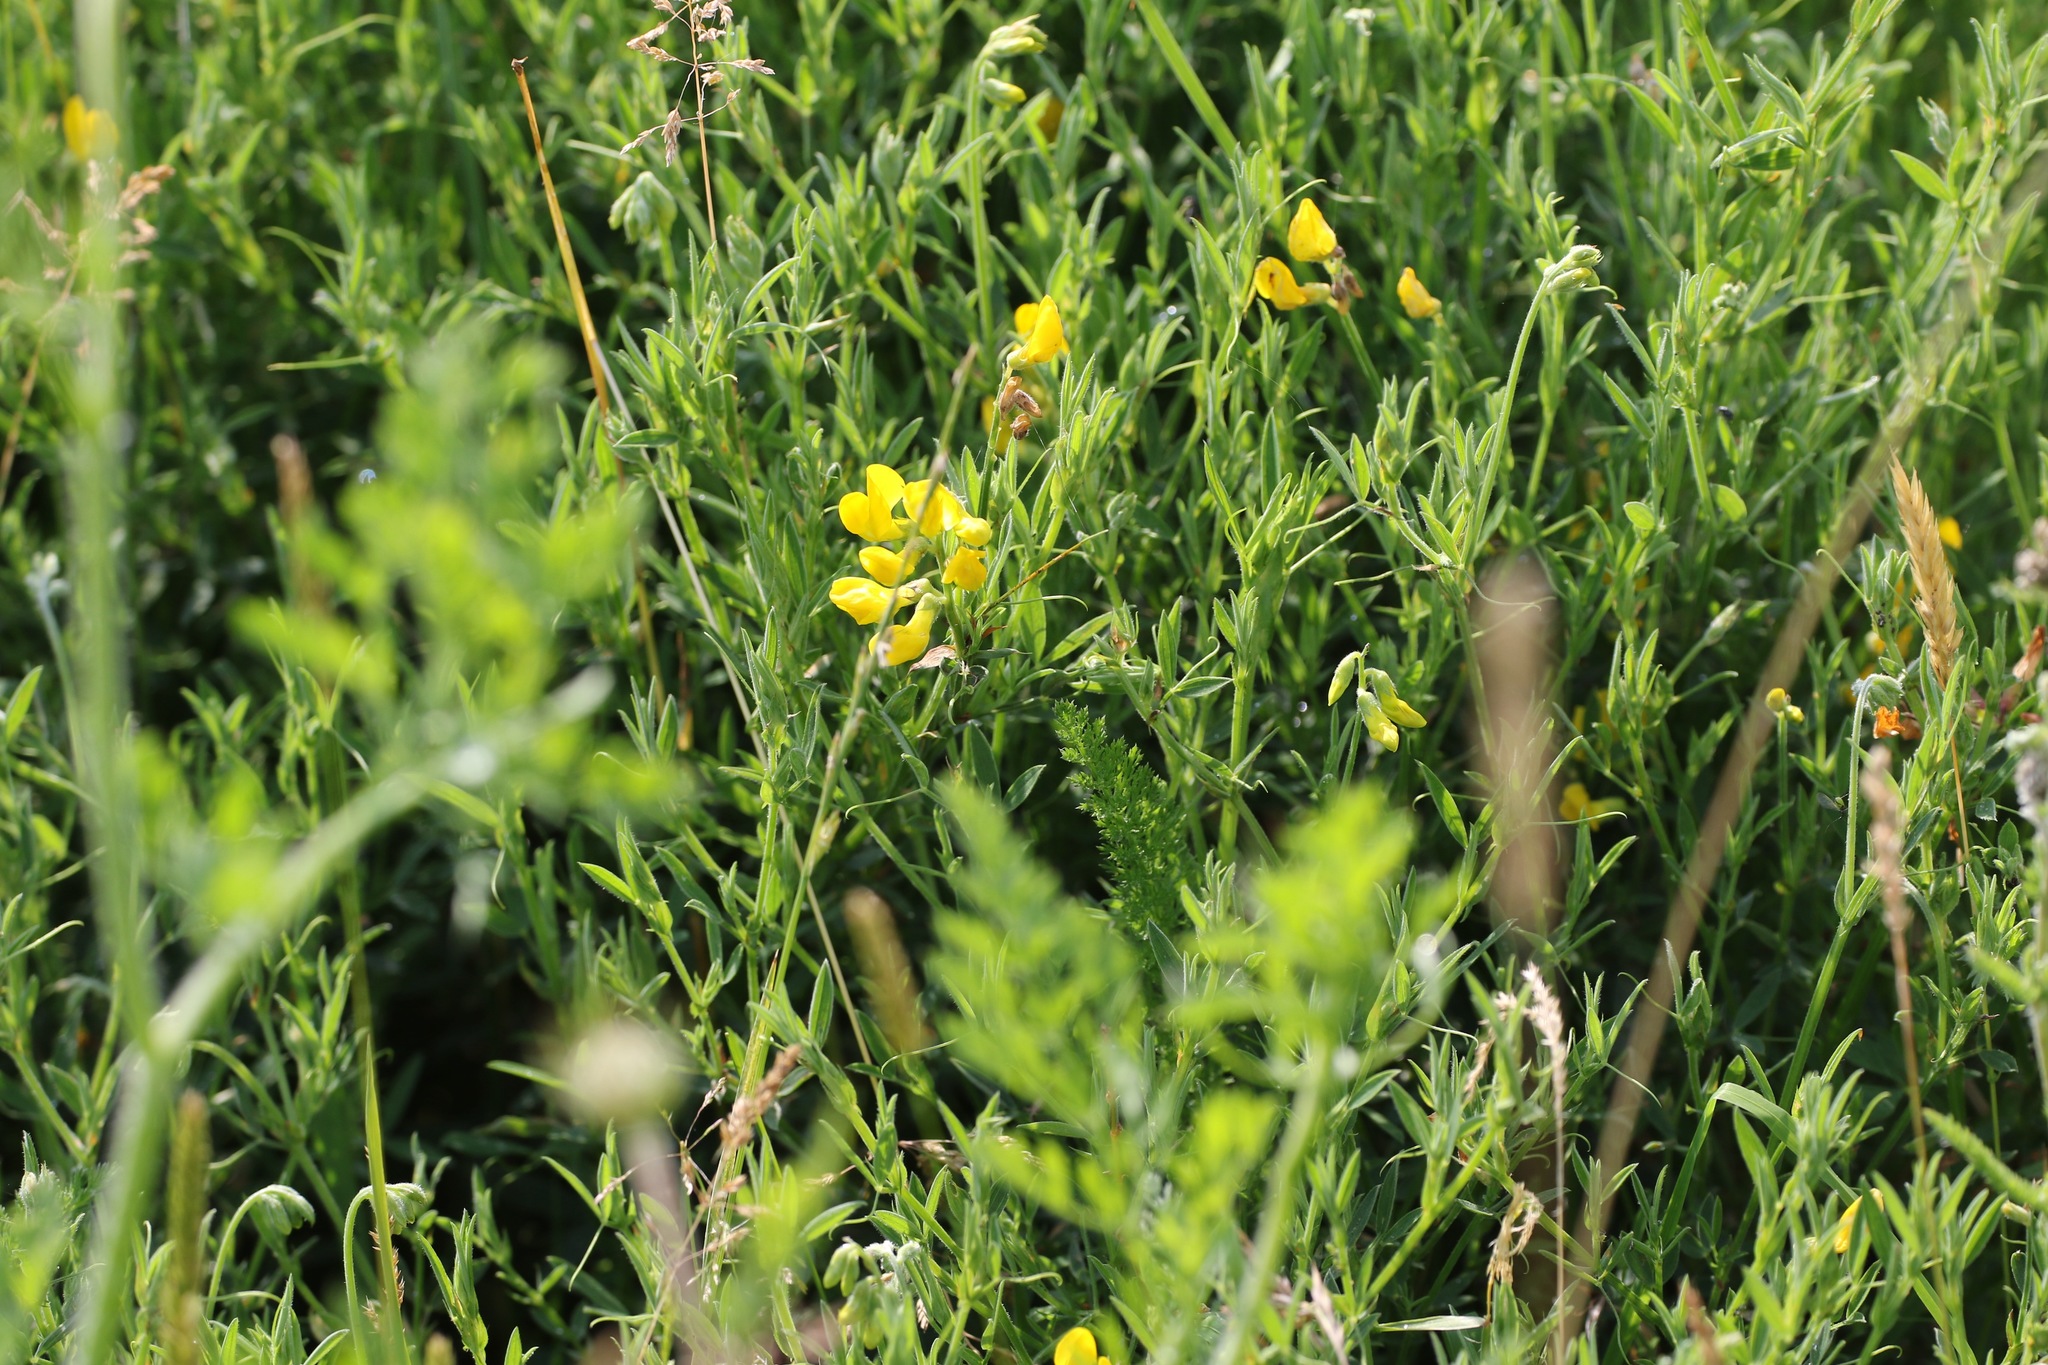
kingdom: Plantae
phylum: Tracheophyta
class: Magnoliopsida
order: Fabales
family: Fabaceae
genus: Lathyrus
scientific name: Lathyrus pratensis
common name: Meadow vetchling
